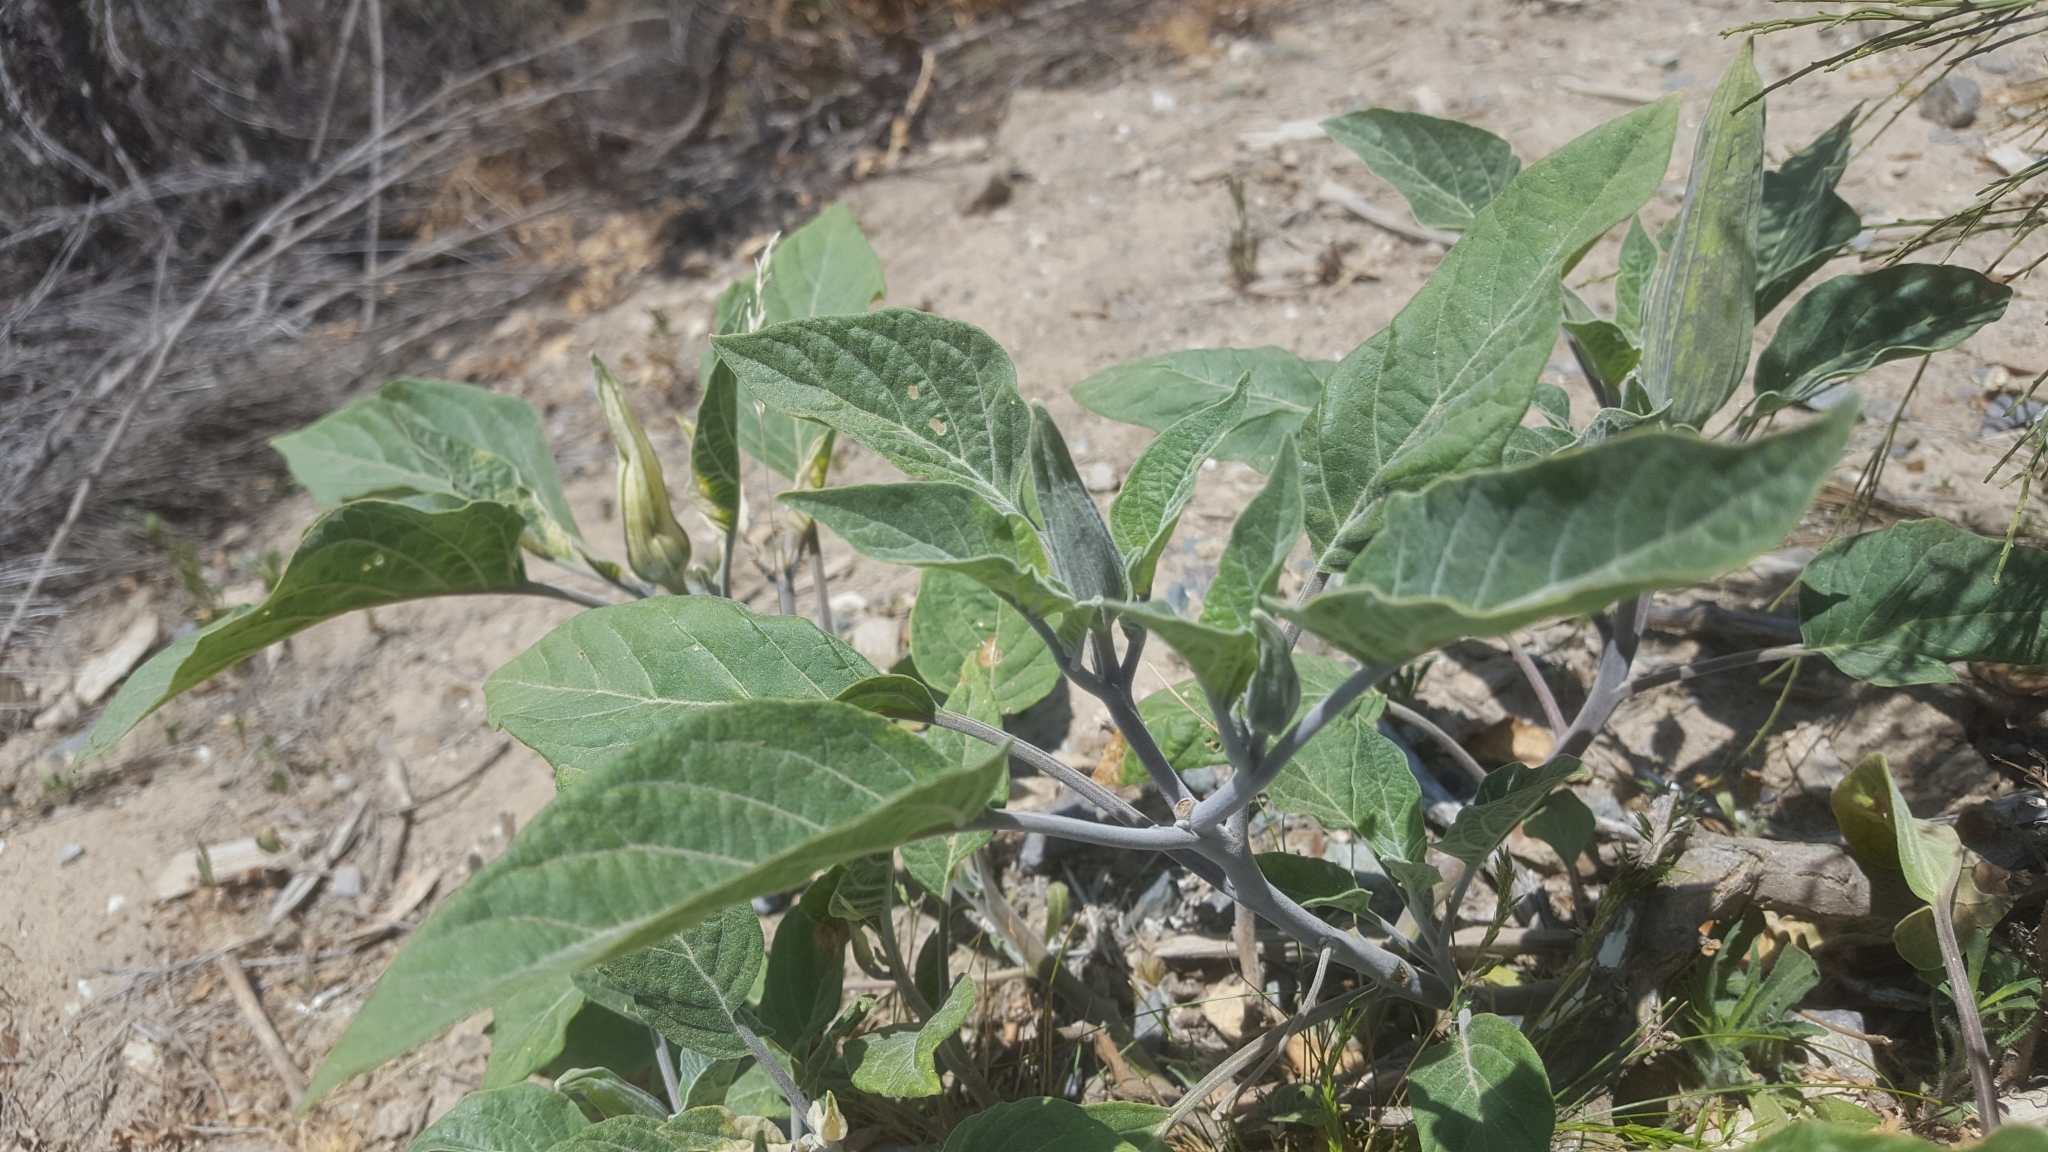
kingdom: Plantae
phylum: Tracheophyta
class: Magnoliopsida
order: Solanales
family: Solanaceae
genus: Datura
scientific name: Datura wrightii
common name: Sacred thorn-apple
